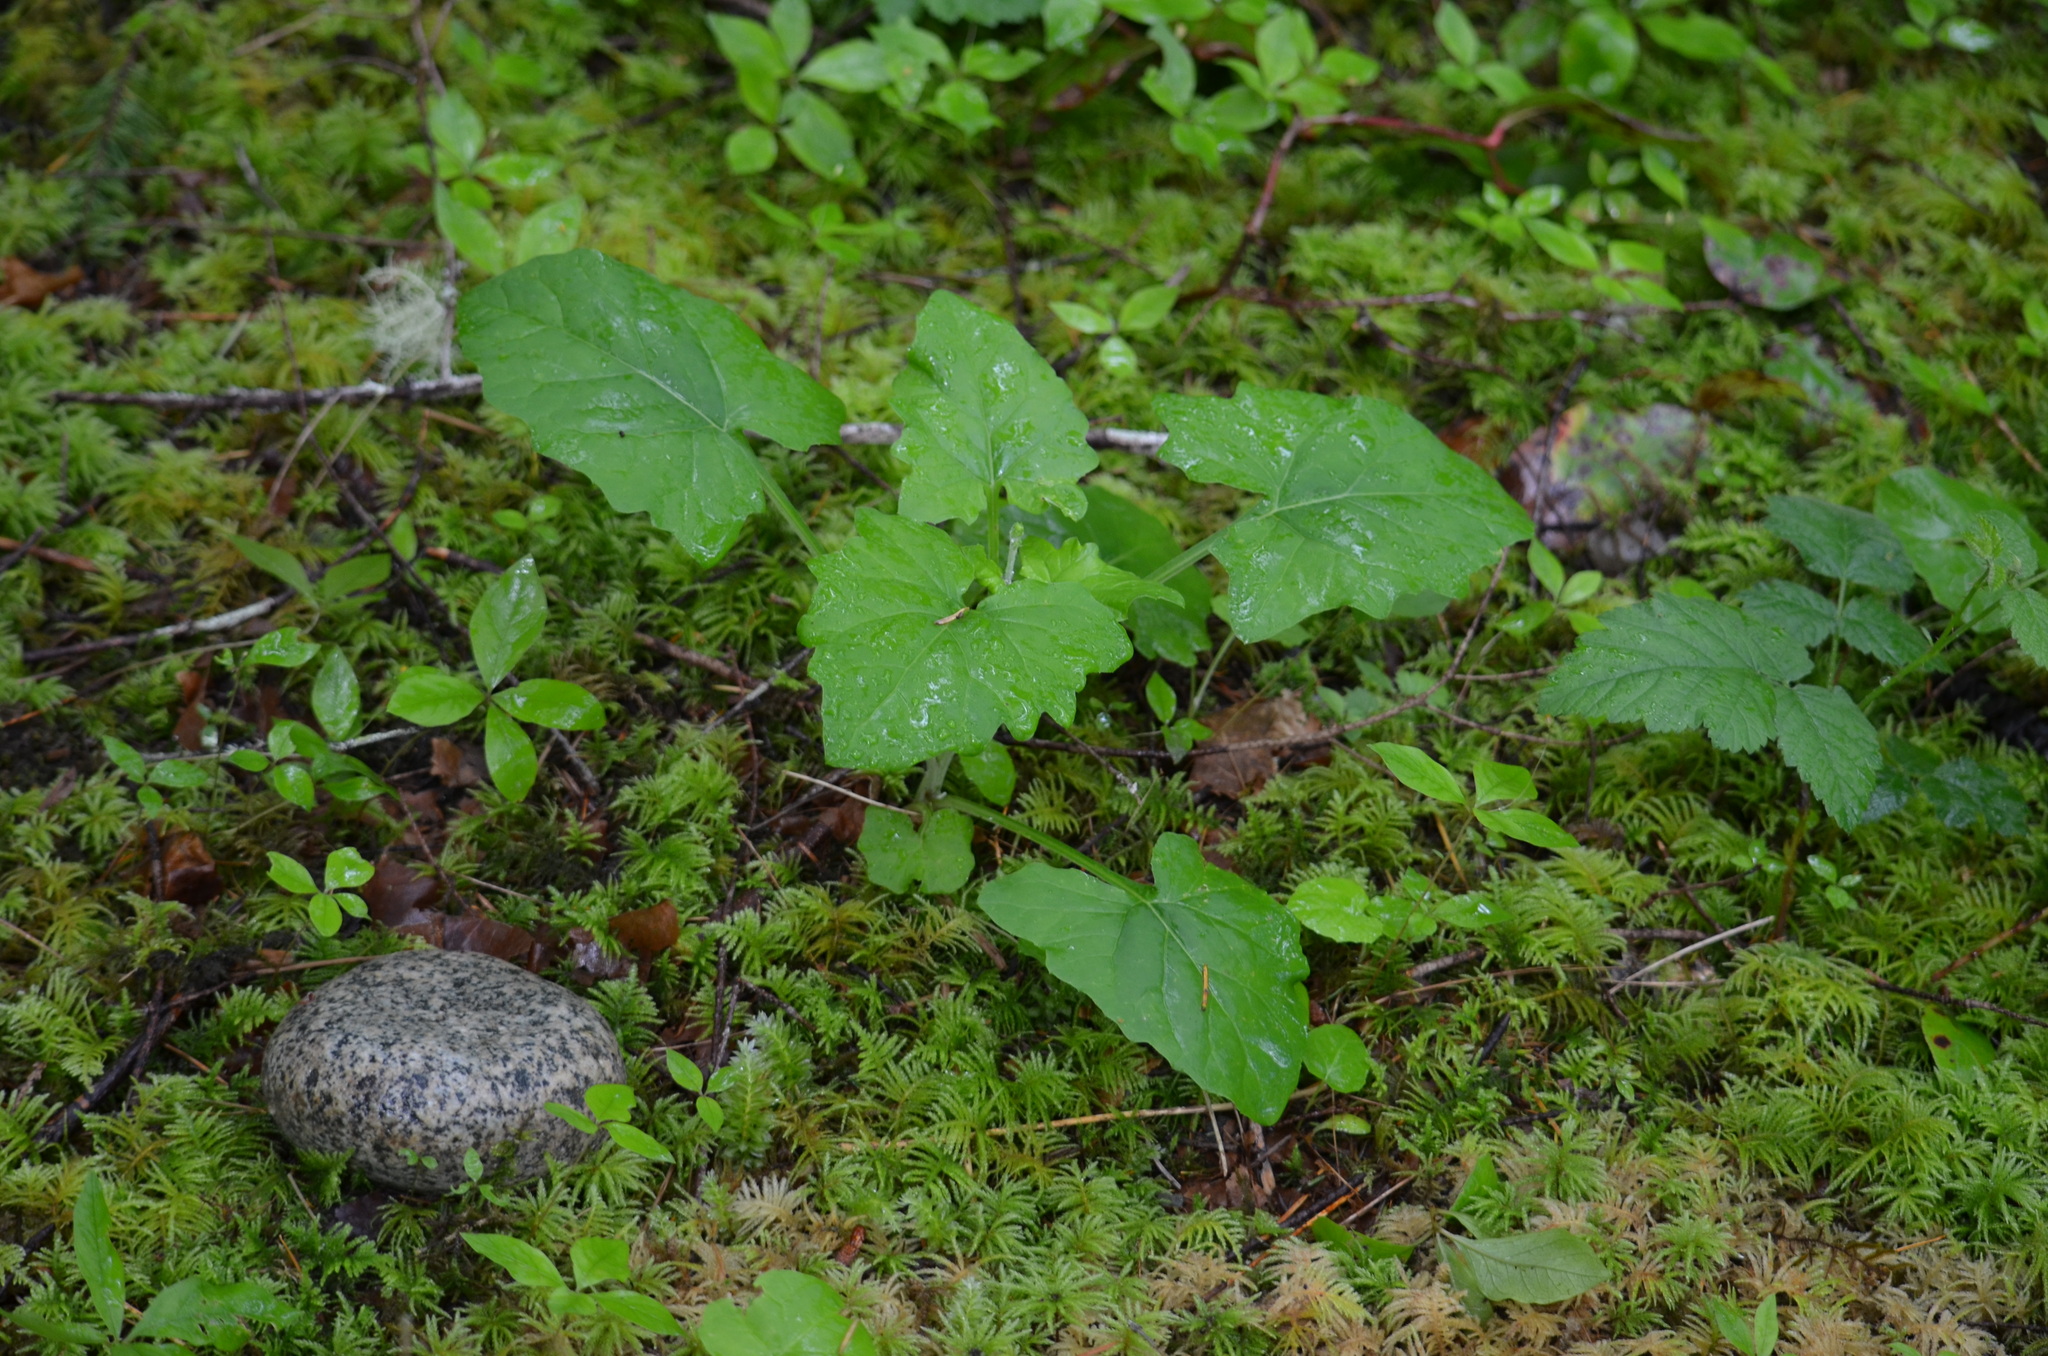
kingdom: Plantae
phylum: Tracheophyta
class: Magnoliopsida
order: Asterales
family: Asteraceae
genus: Adenocaulon
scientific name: Adenocaulon bicolor
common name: Trailplant
